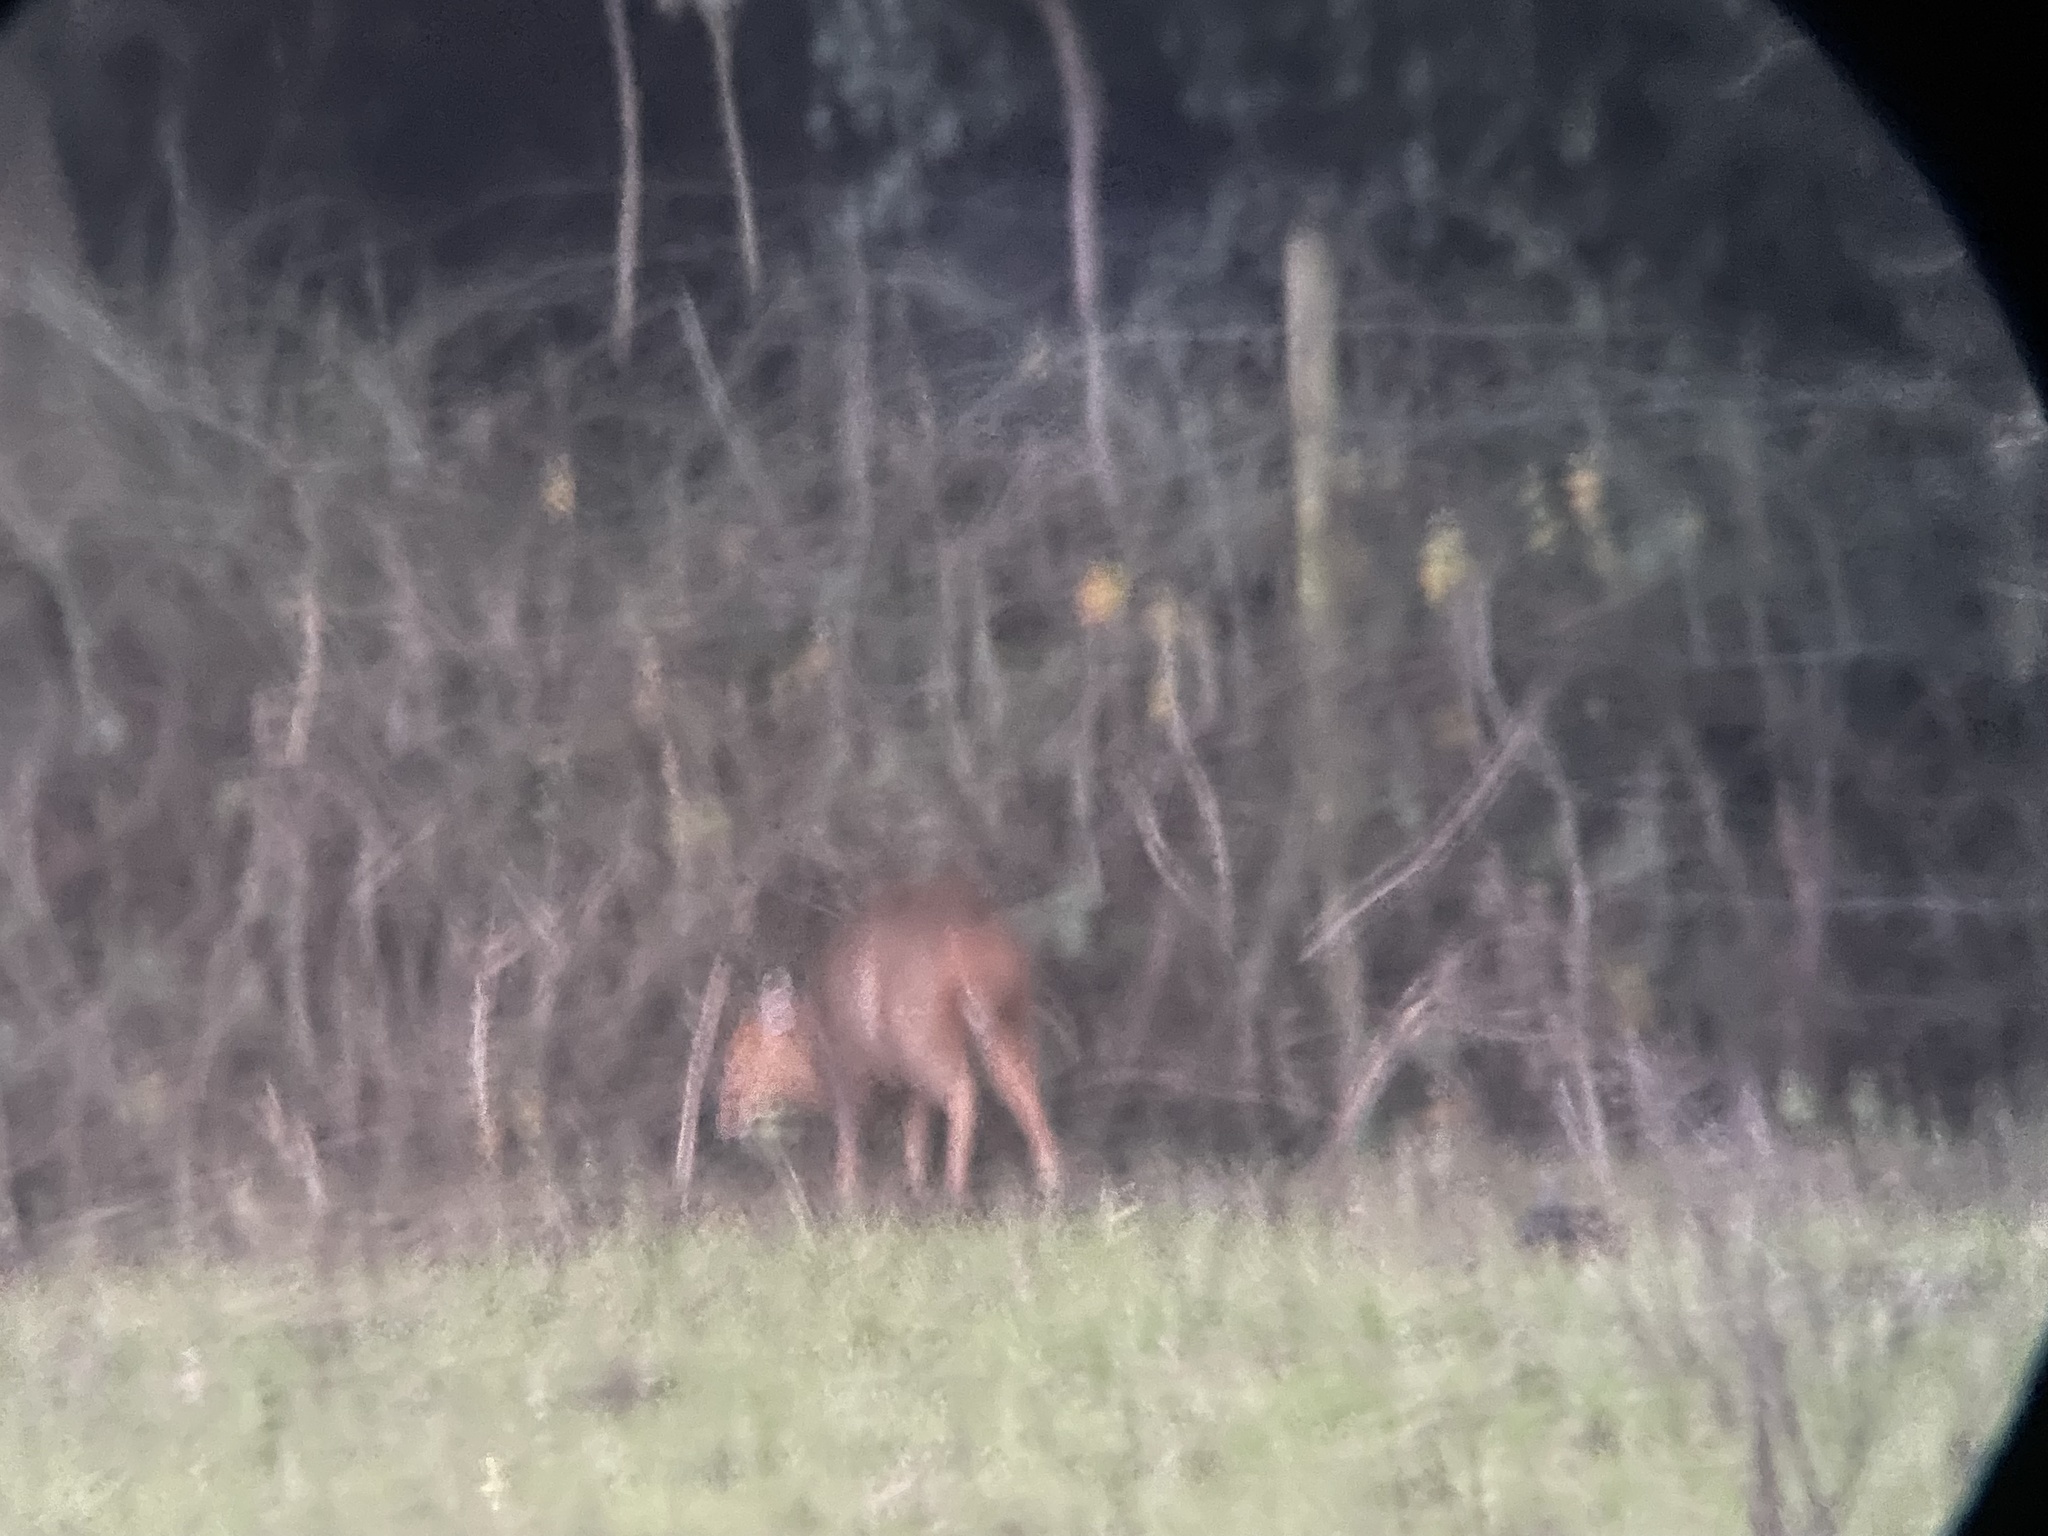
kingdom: Animalia
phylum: Chordata
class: Mammalia
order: Artiodactyla
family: Cervidae
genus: Muntiacus
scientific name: Muntiacus reevesi
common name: Reeves' muntjac
